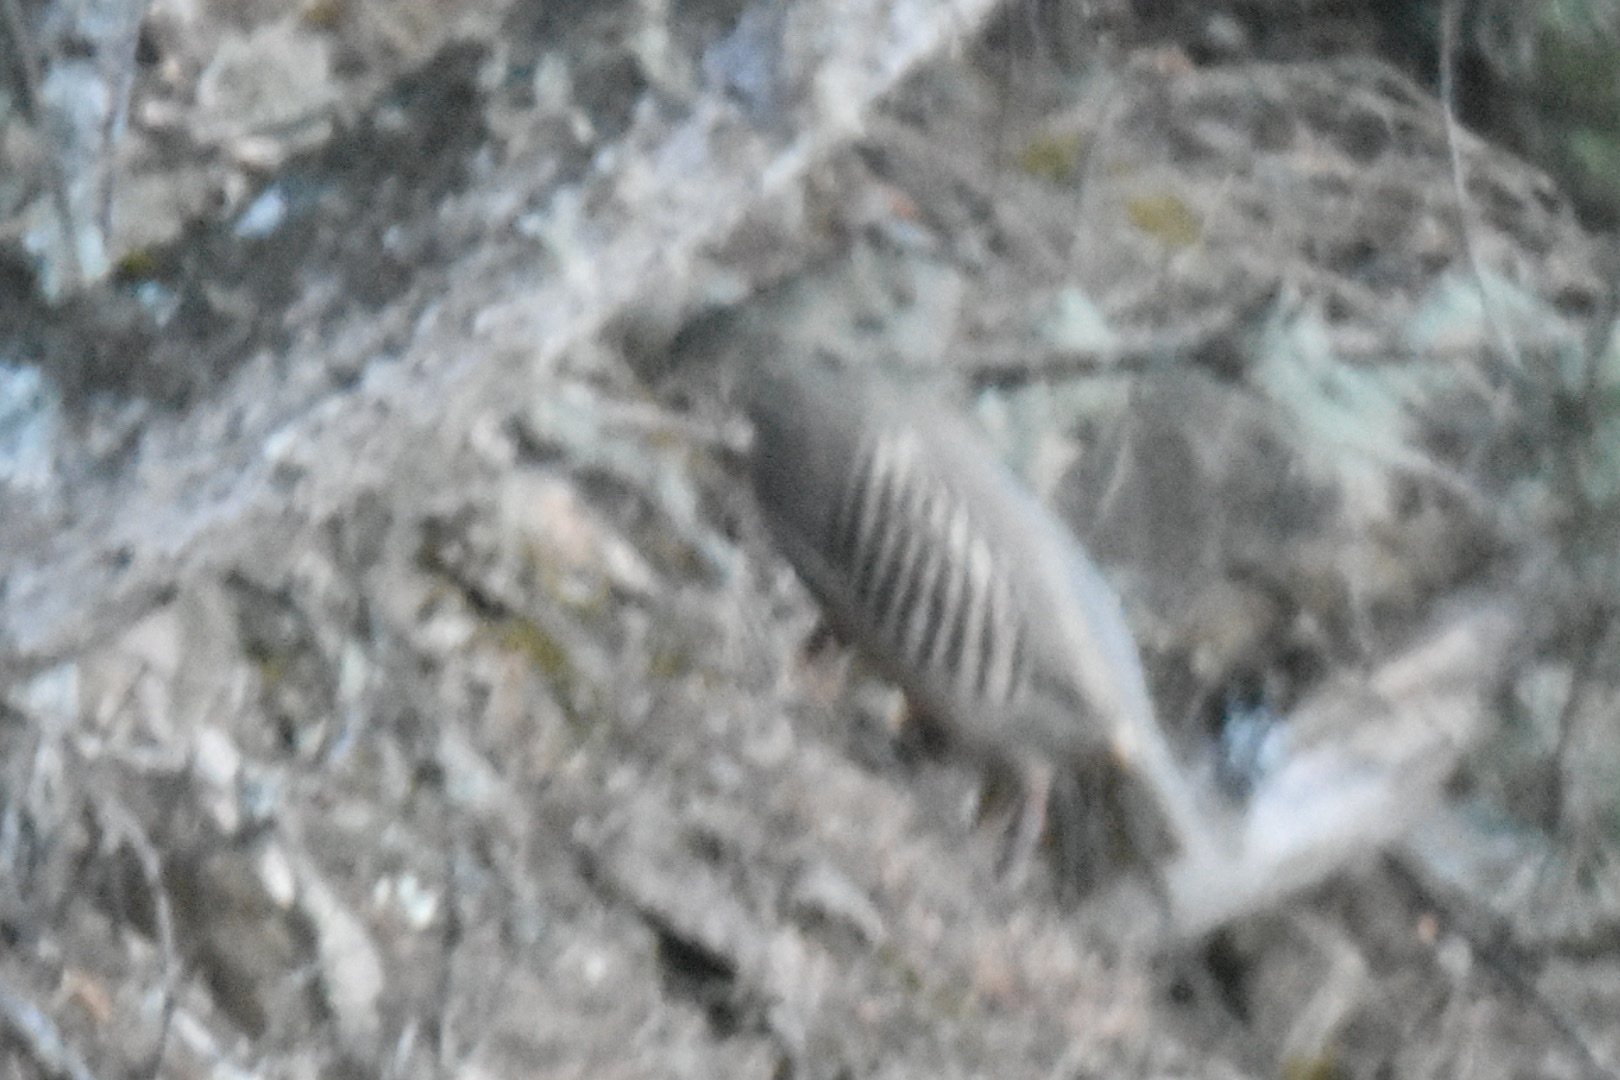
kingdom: Animalia
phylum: Chordata
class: Aves
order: Galliformes
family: Phasianidae
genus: Alectoris
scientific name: Alectoris chukar
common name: Chukar
